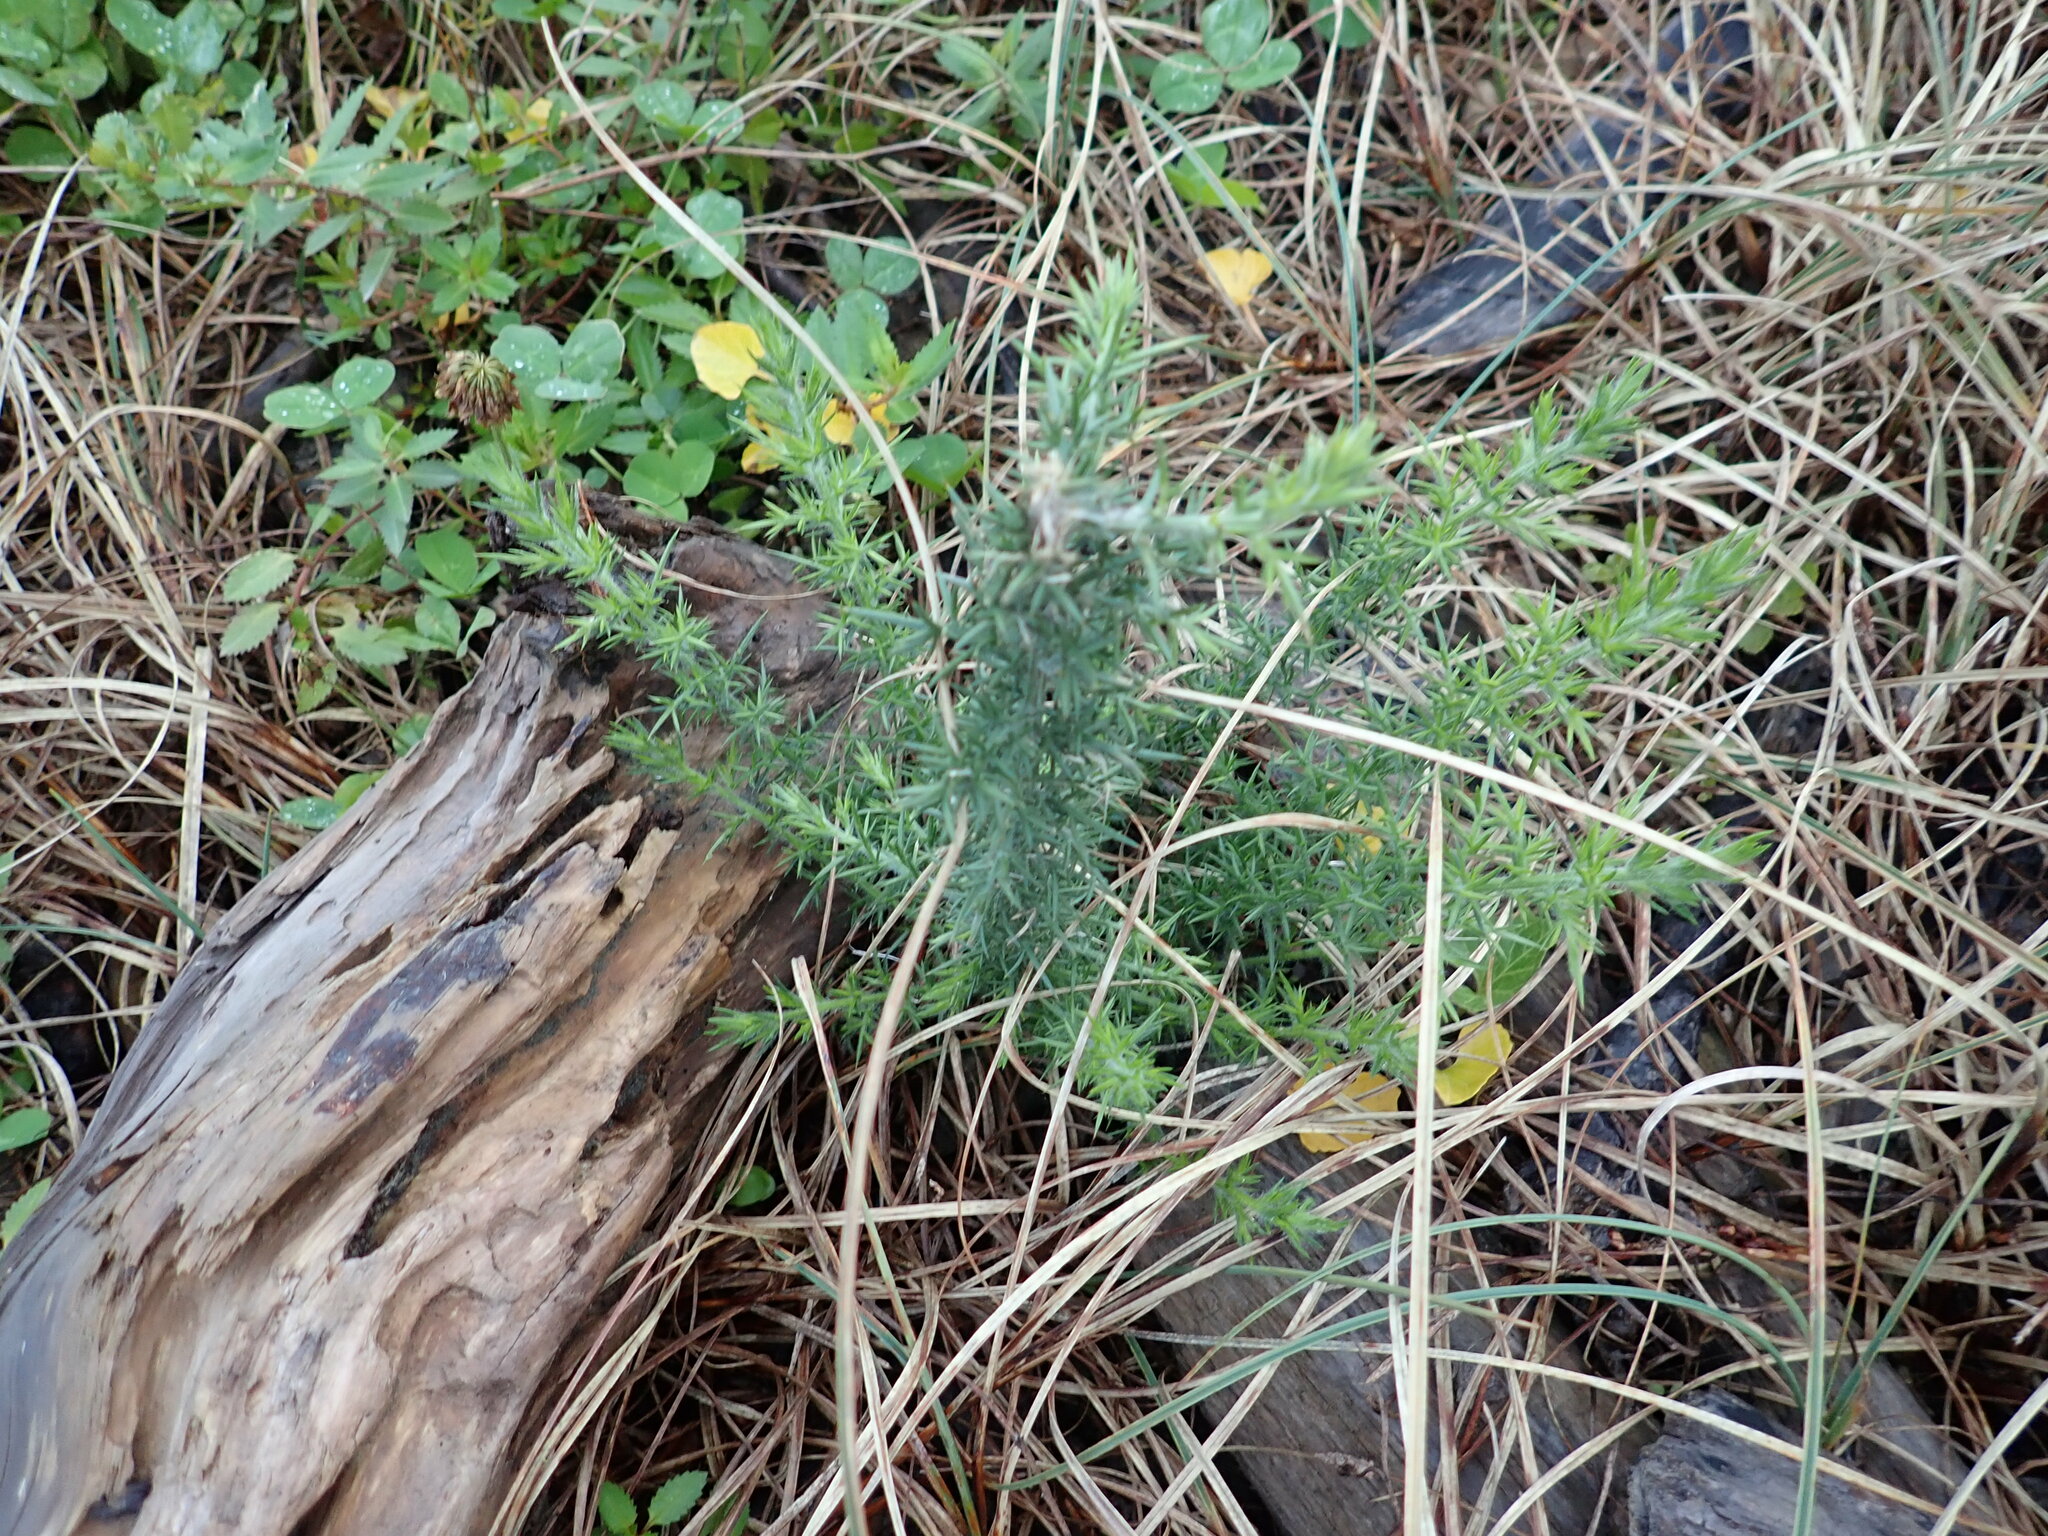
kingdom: Plantae
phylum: Tracheophyta
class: Magnoliopsida
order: Fabales
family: Fabaceae
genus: Ulex
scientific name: Ulex europaeus
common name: Common gorse
